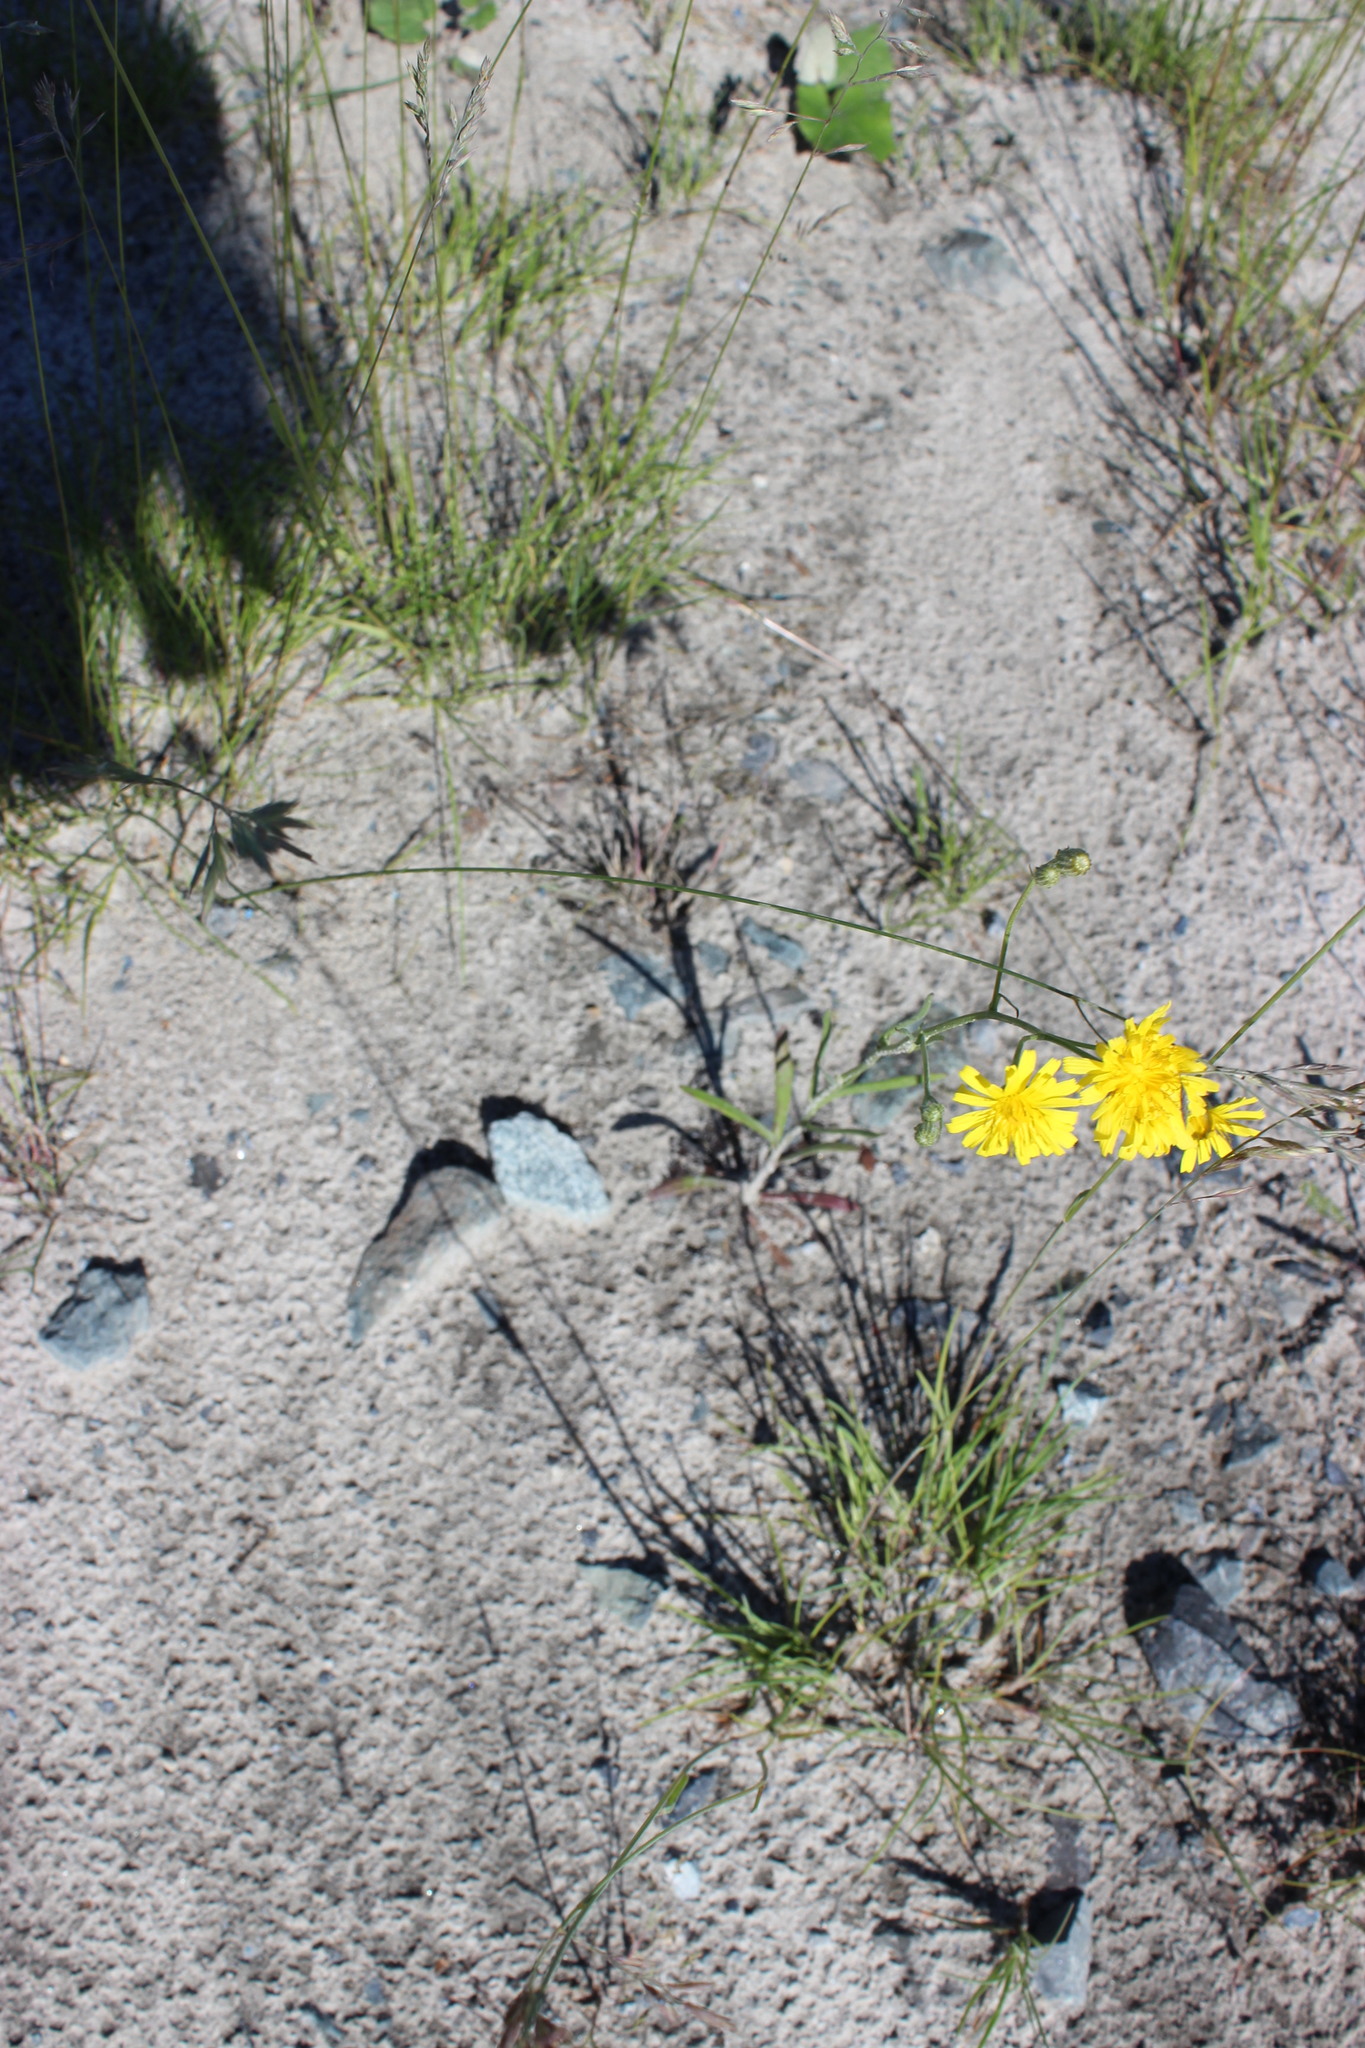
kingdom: Plantae
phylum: Tracheophyta
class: Magnoliopsida
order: Asterales
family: Asteraceae
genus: Crepis
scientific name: Crepis tectorum
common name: Narrow-leaved hawk's-beard
